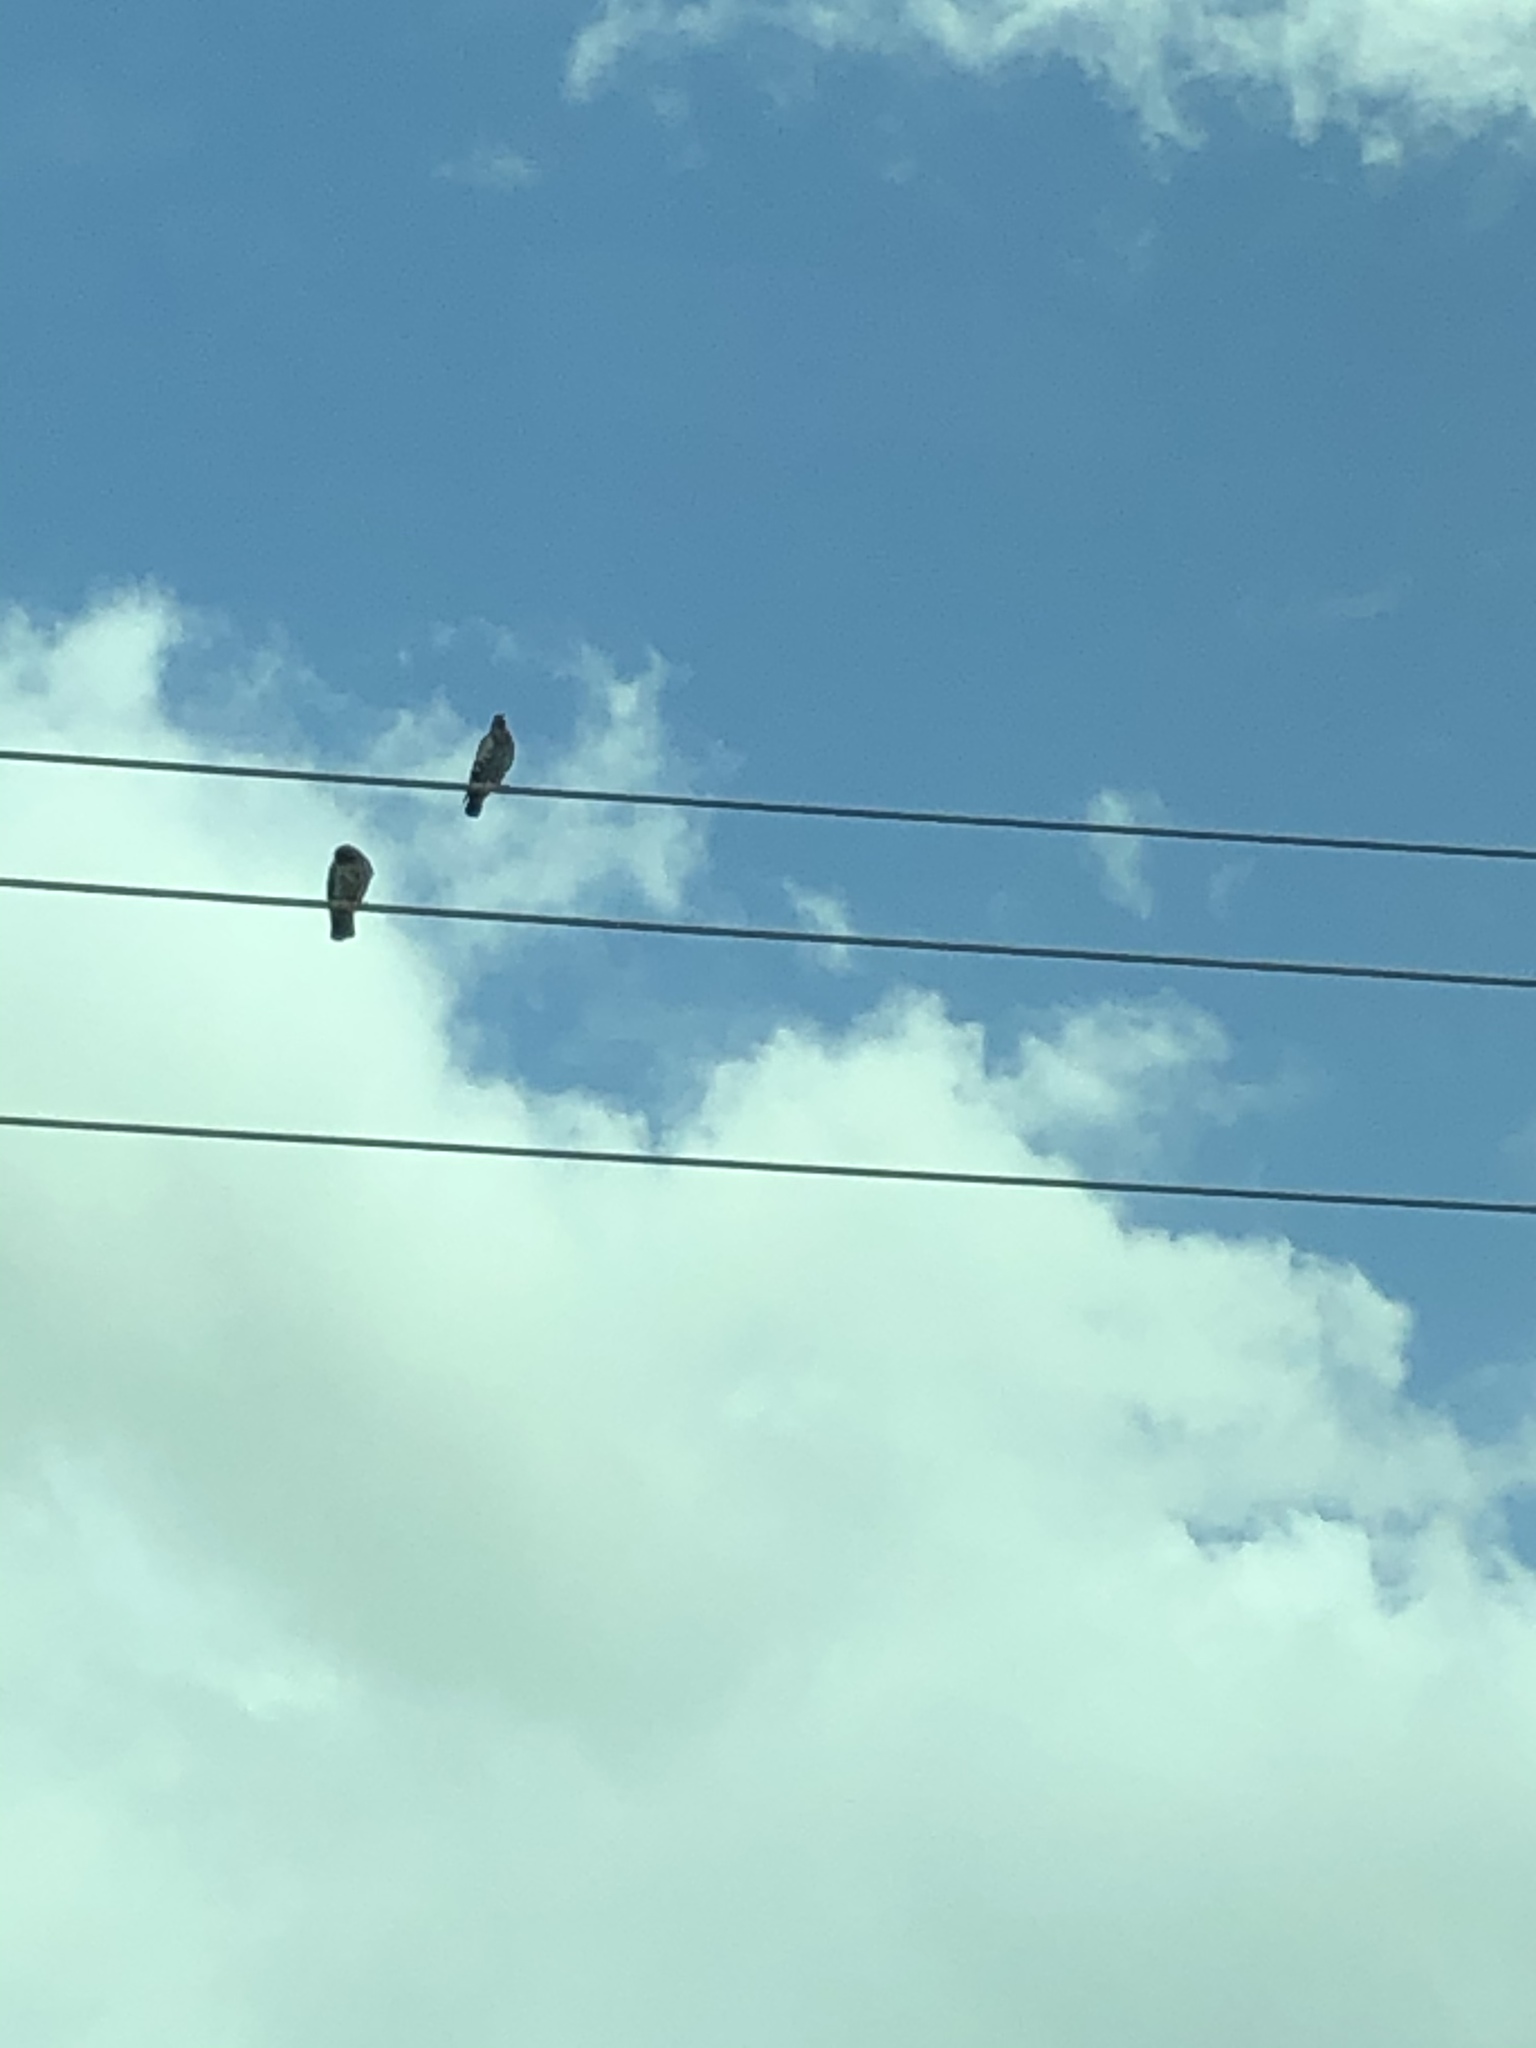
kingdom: Animalia
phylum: Chordata
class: Aves
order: Columbiformes
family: Columbidae
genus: Columba
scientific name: Columba livia
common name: Rock pigeon
